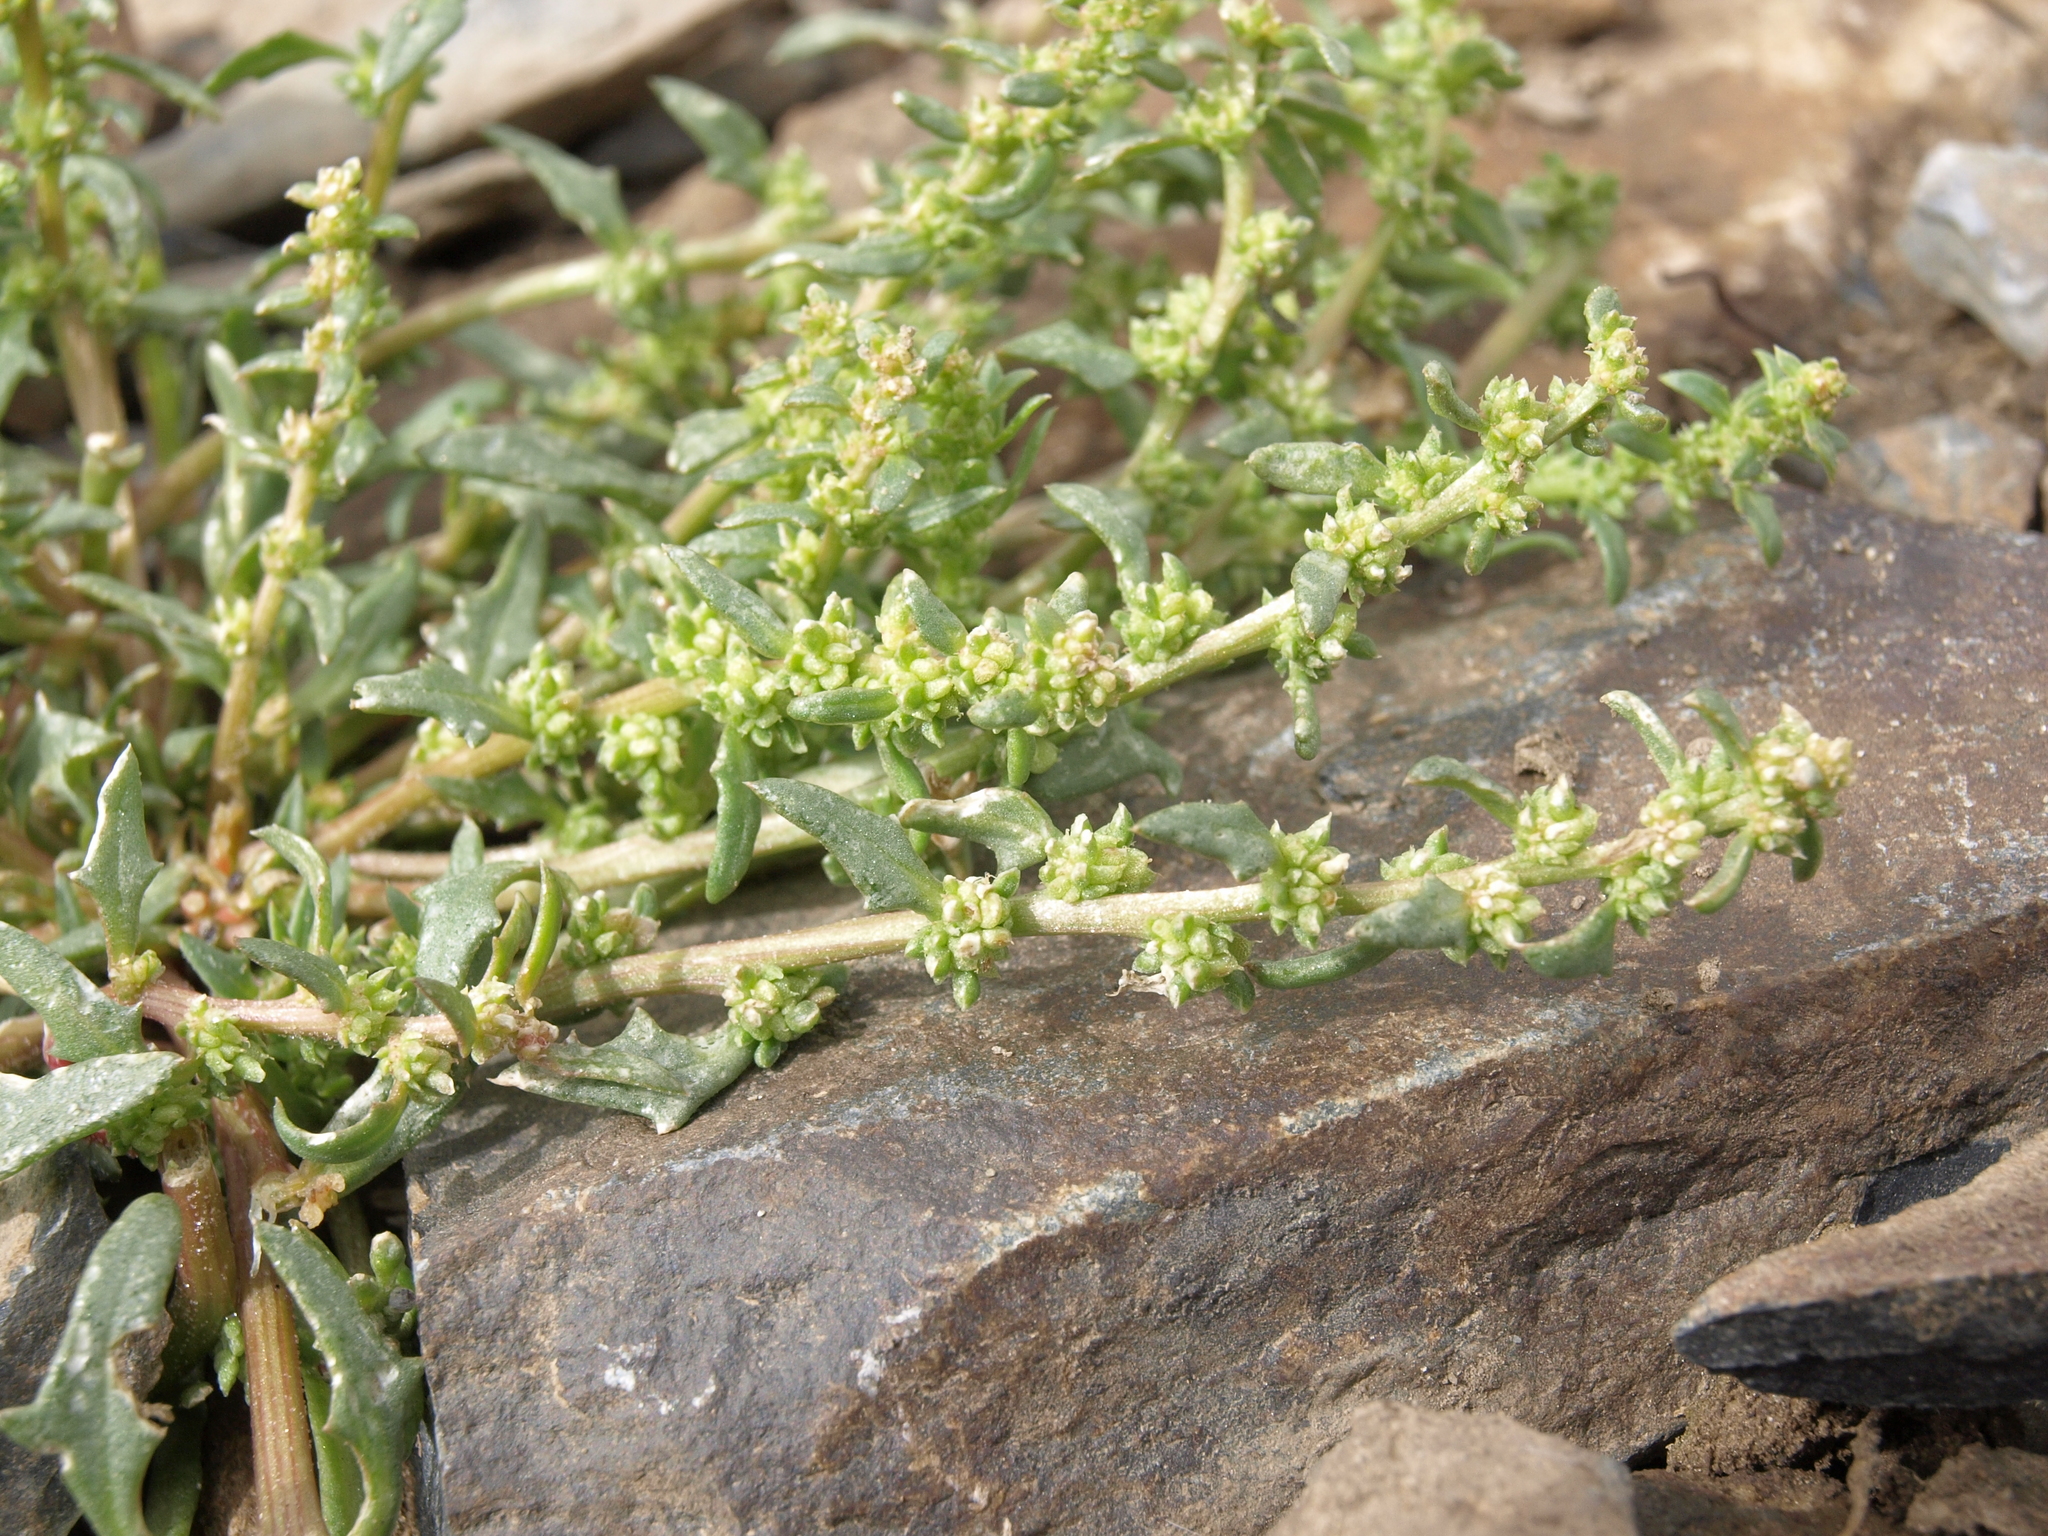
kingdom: Plantae
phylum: Tracheophyta
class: Magnoliopsida
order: Caryophyllales
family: Amaranthaceae
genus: Blitum
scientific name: Blitum nuttallianum
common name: Poverty-weed
